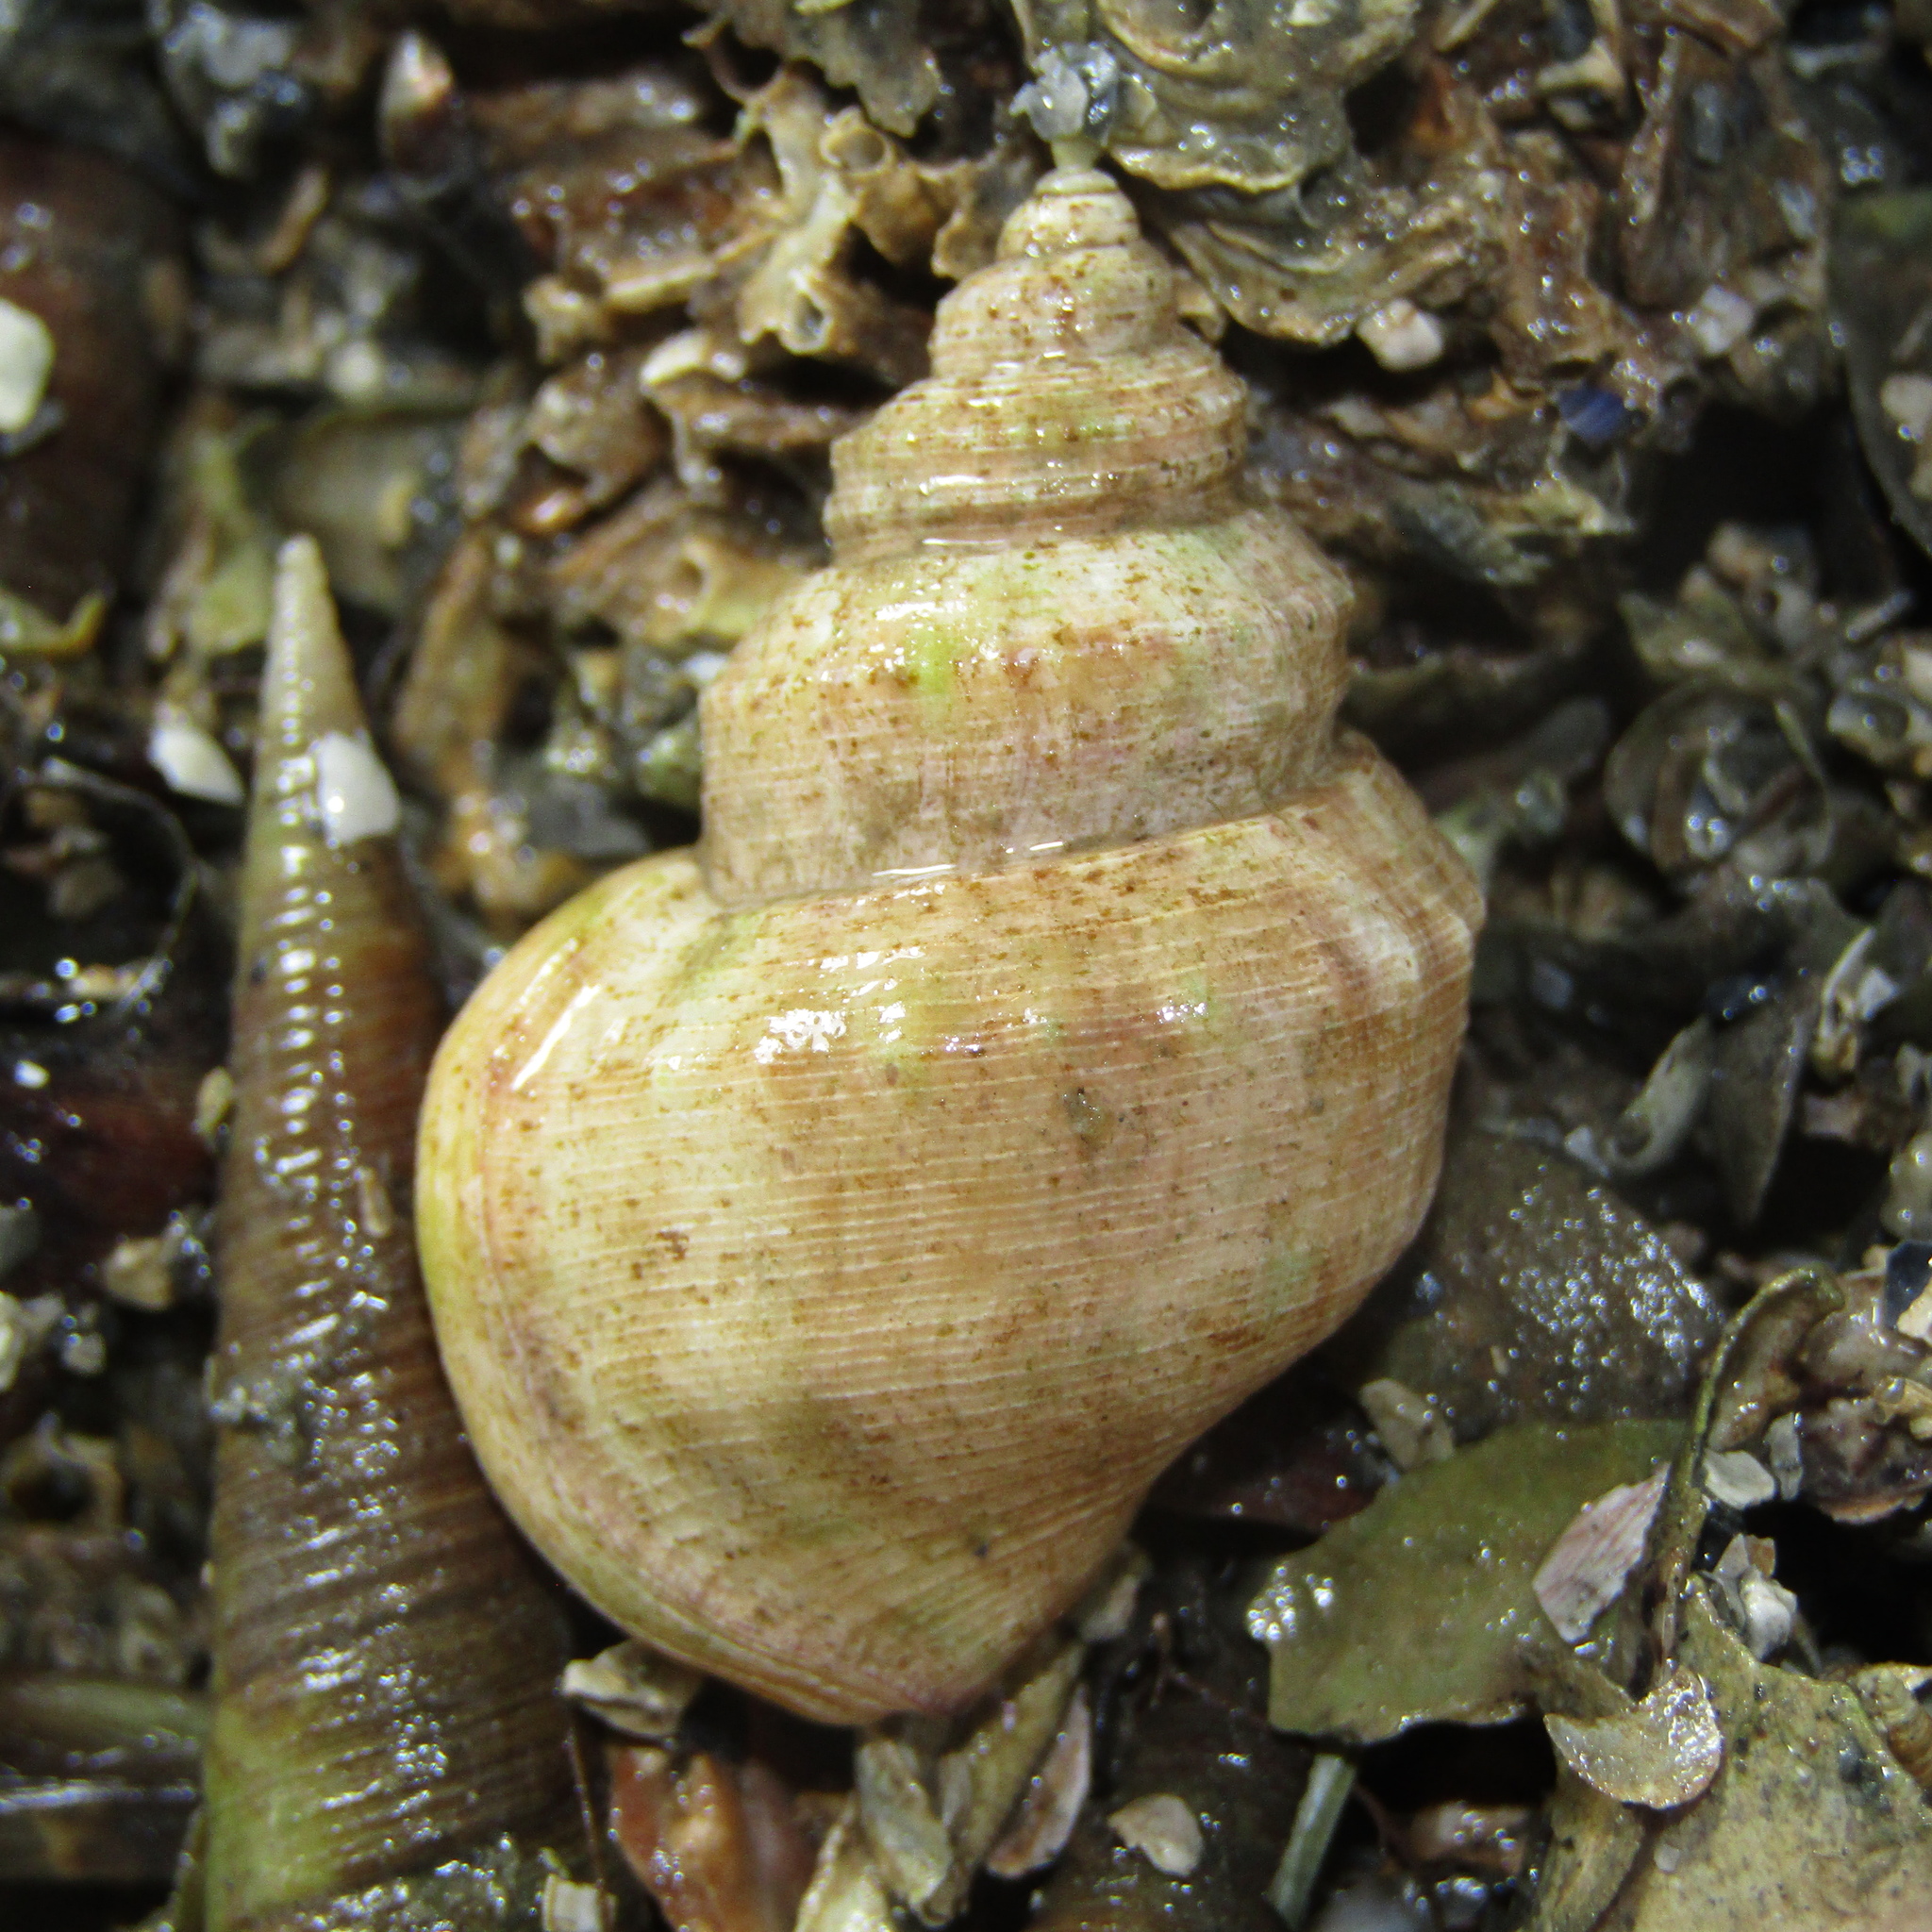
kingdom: Animalia
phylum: Mollusca
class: Gastropoda
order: Littorinimorpha
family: Struthiolariidae
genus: Pelicaria
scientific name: Pelicaria vermis
